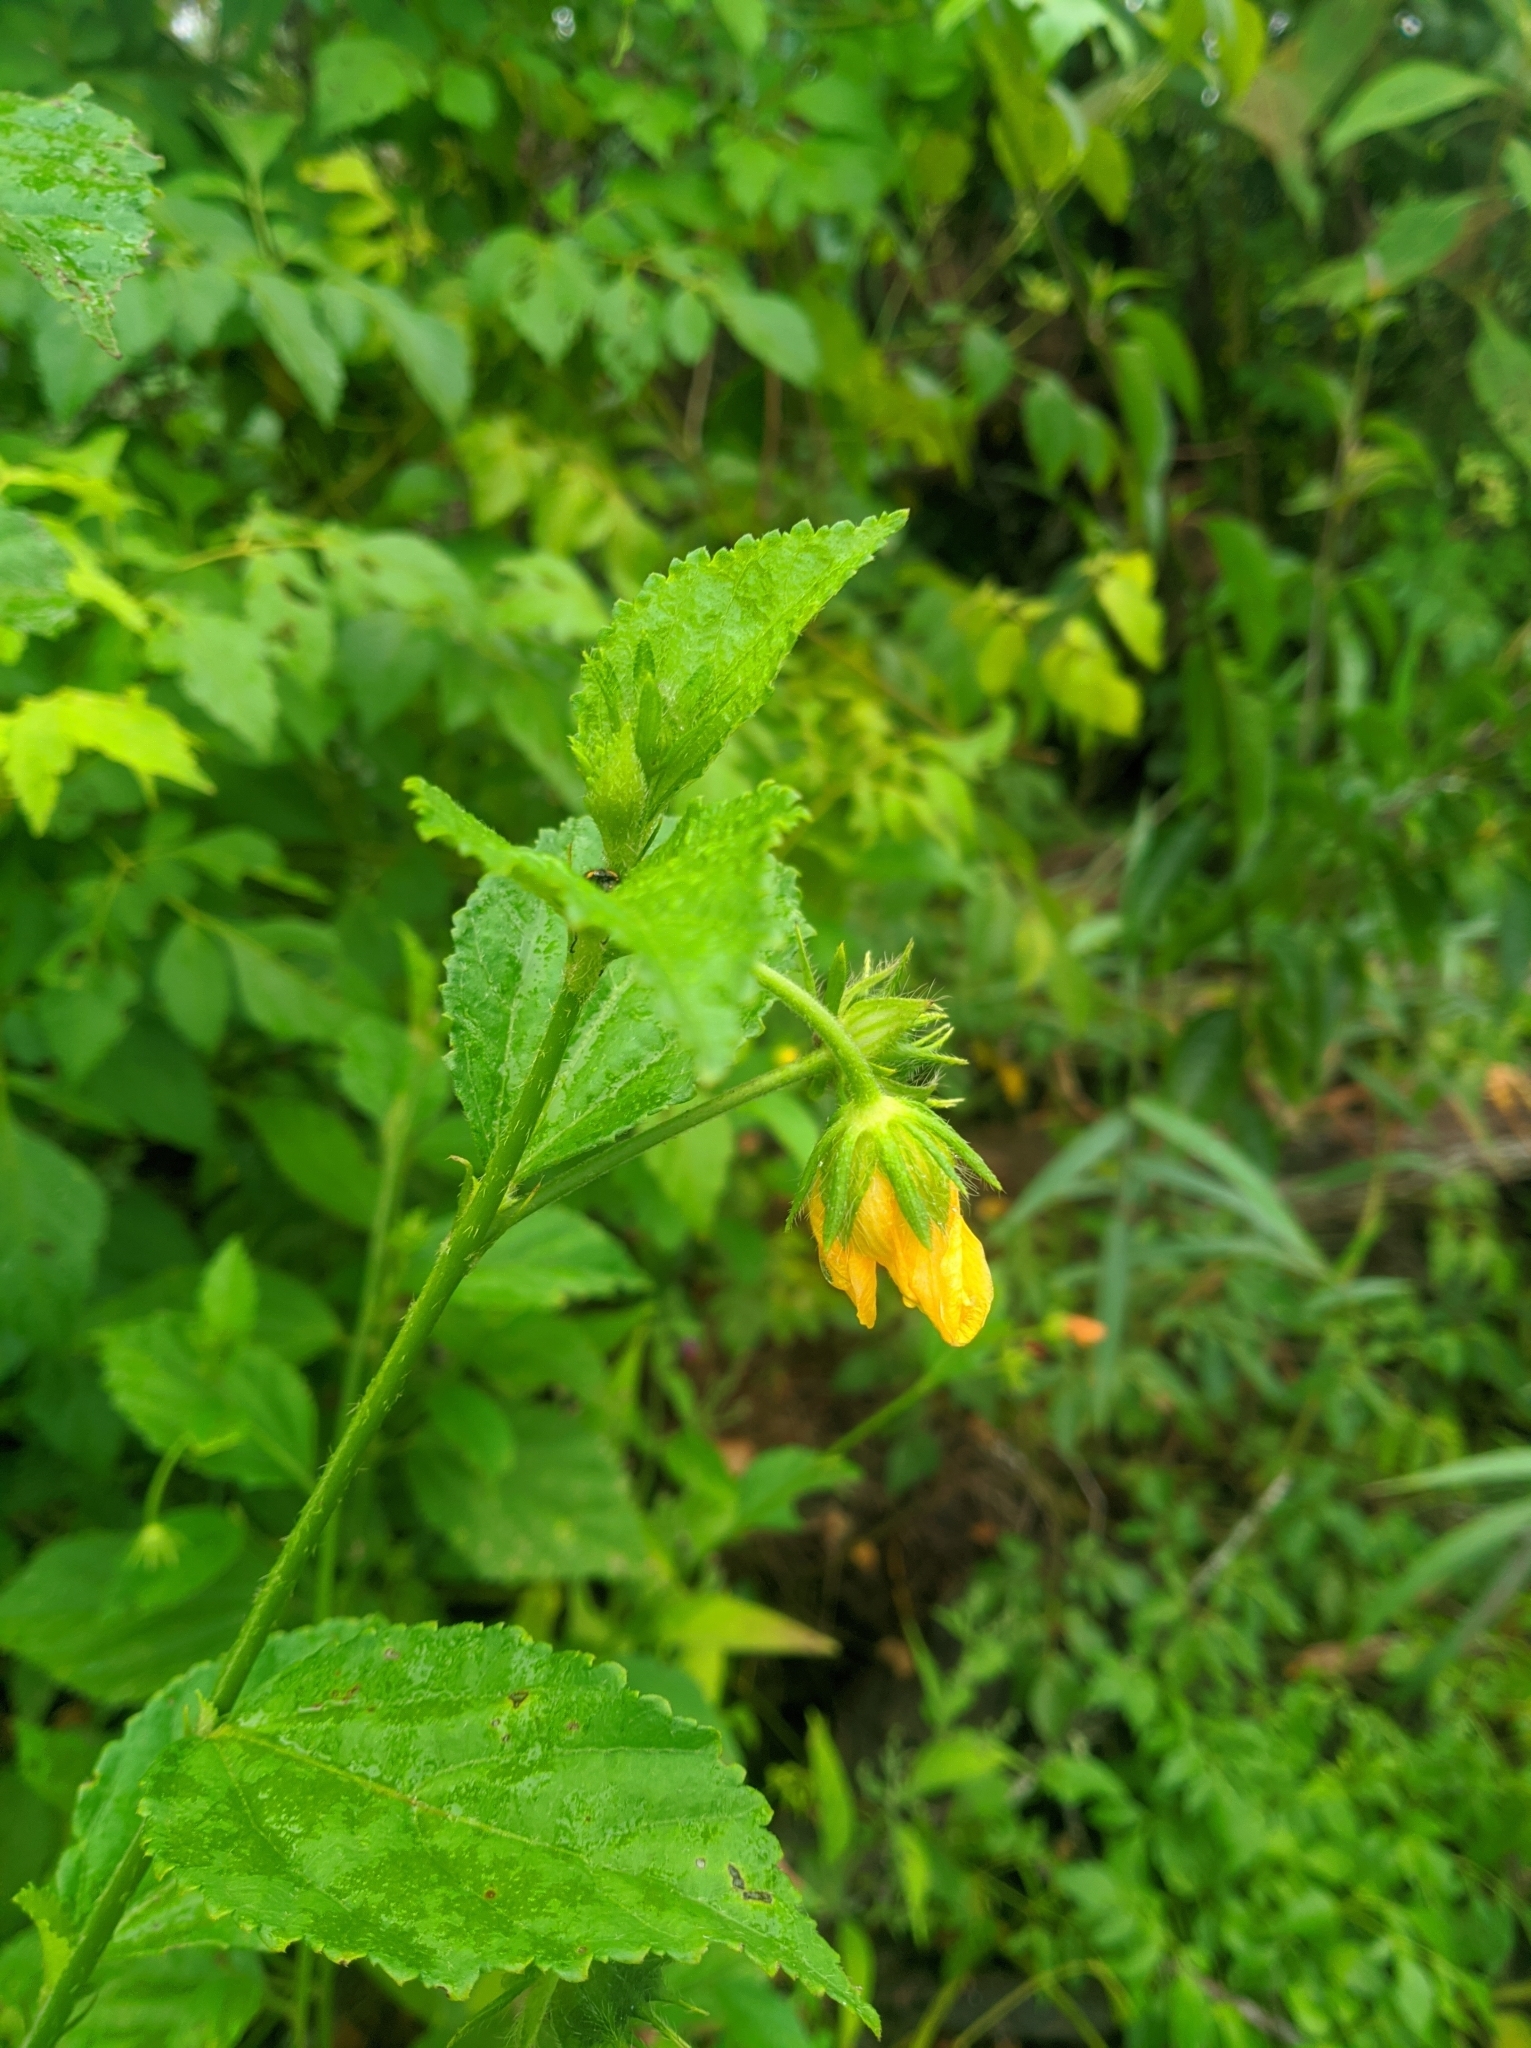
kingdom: Plantae
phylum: Tracheophyta
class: Magnoliopsida
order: Malvales
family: Malvaceae
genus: Pavonia
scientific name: Pavonia sepium
